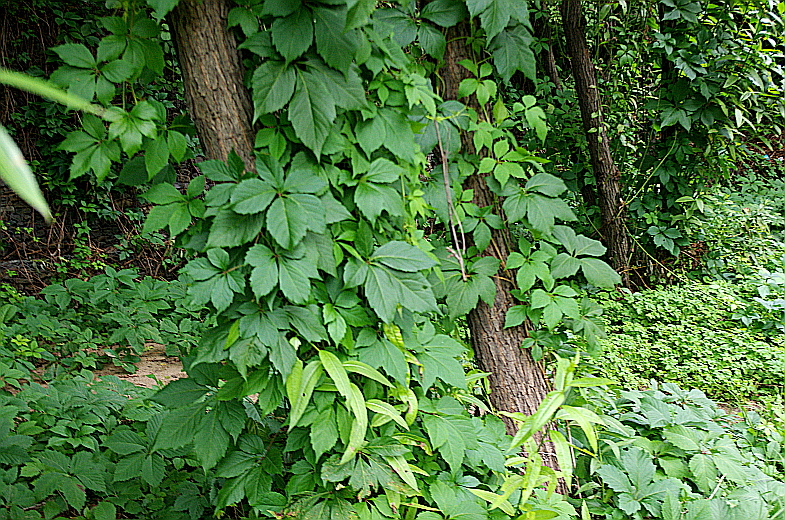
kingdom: Plantae
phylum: Tracheophyta
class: Magnoliopsida
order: Vitales
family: Vitaceae
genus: Parthenocissus
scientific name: Parthenocissus inserta
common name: False virginia-creeper
